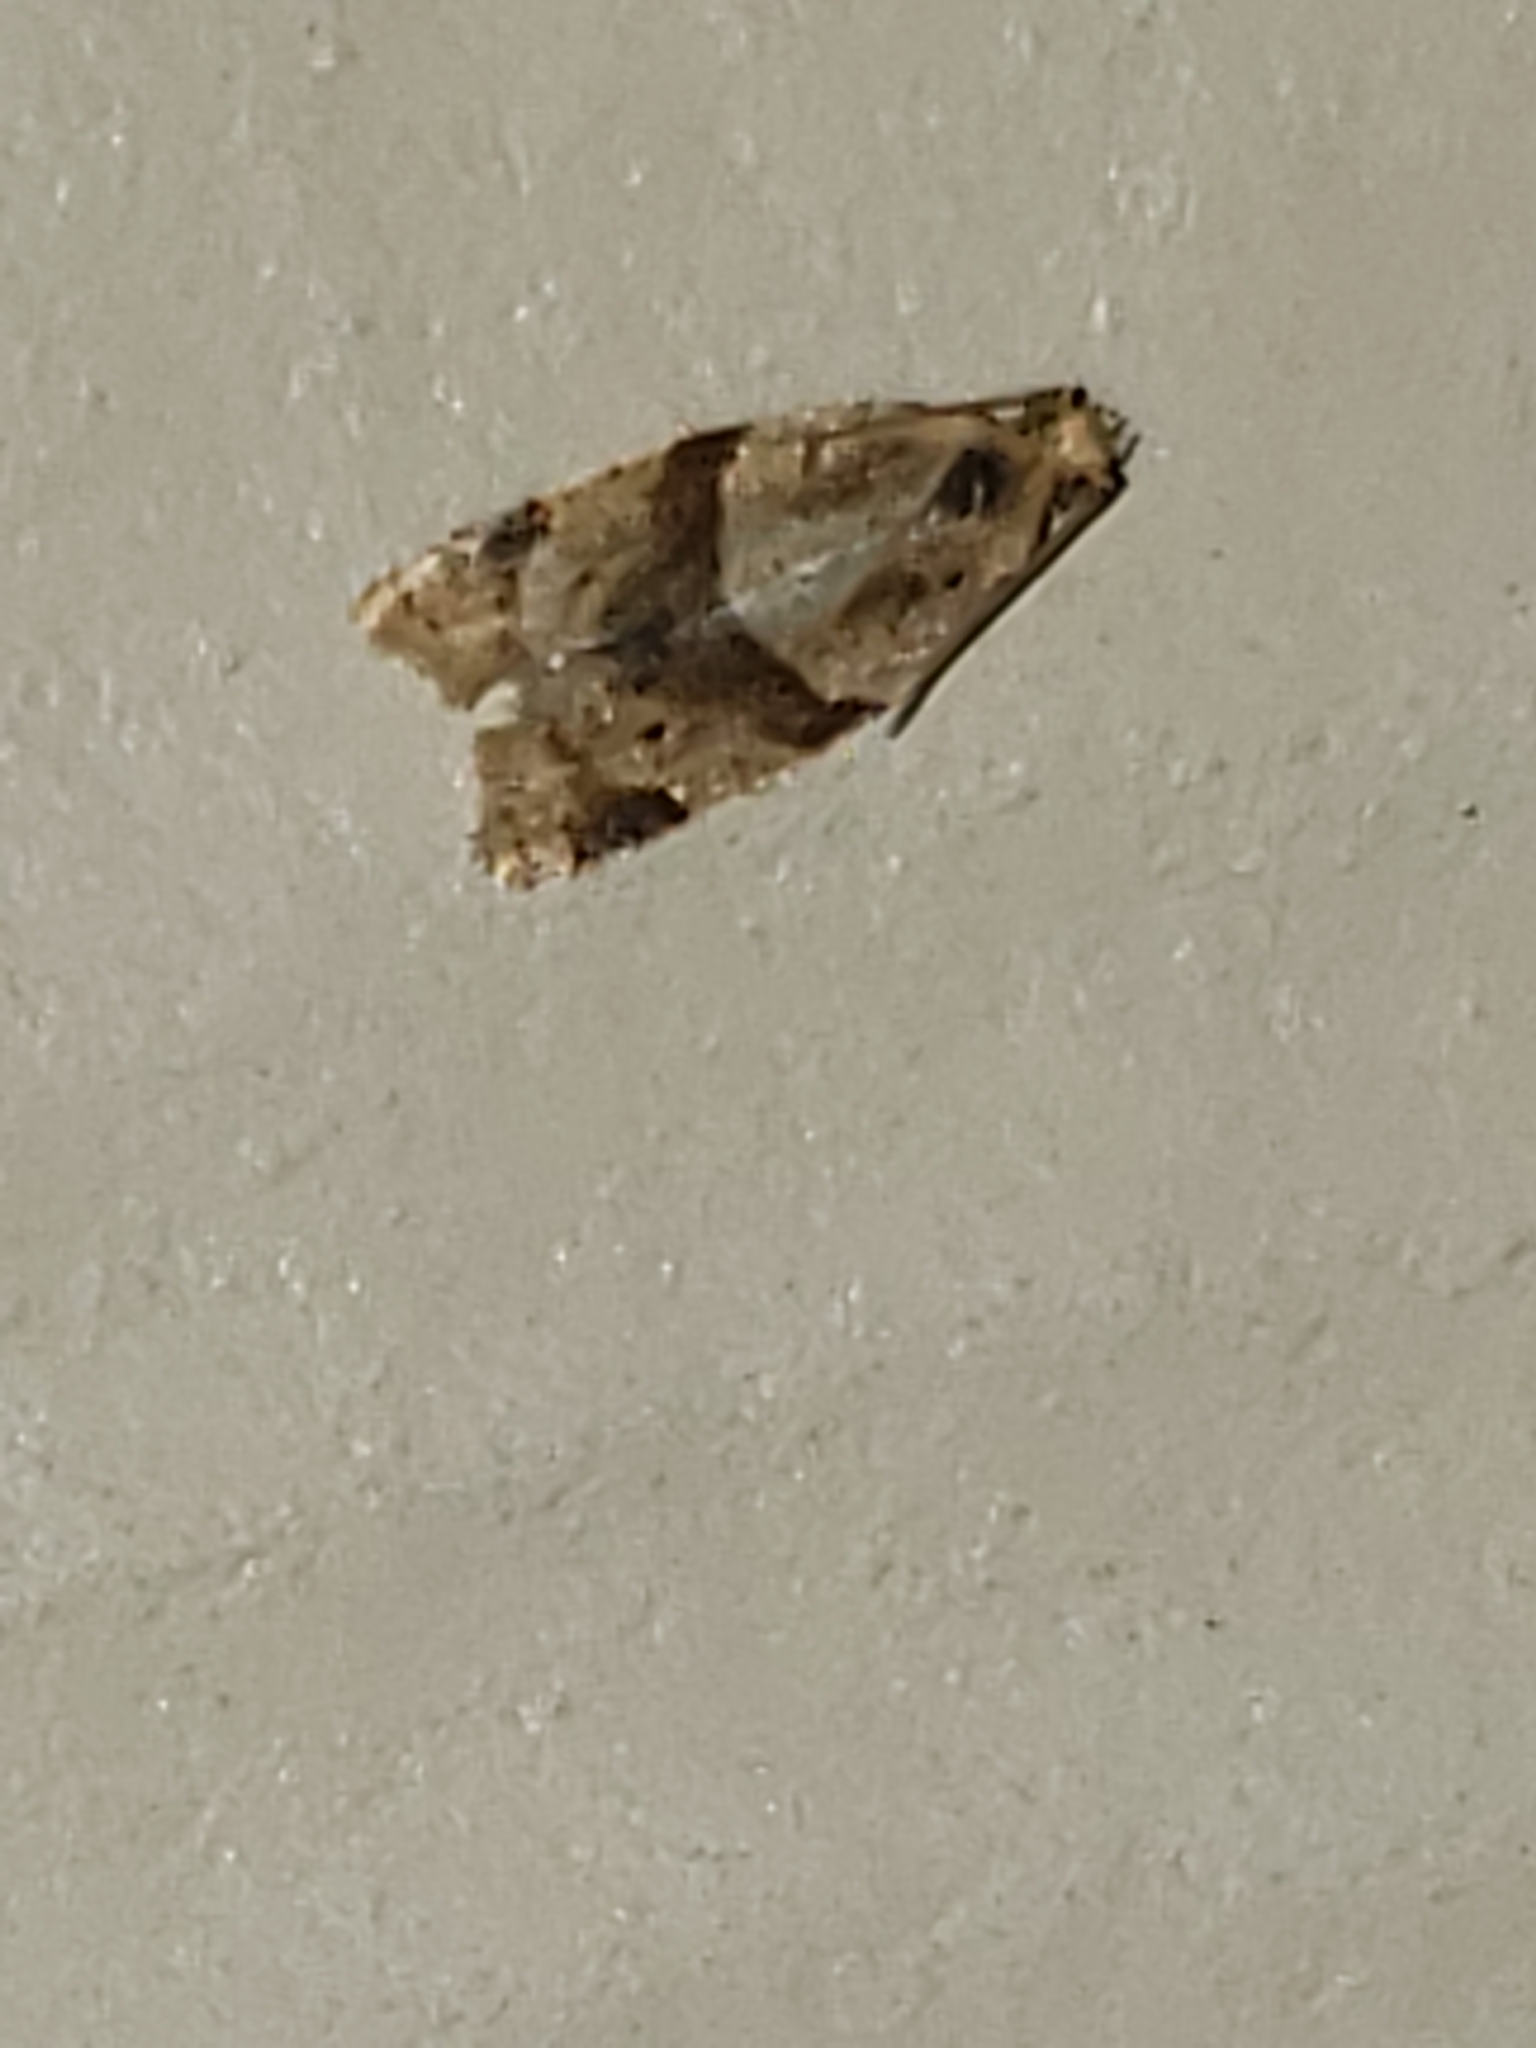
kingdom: Animalia
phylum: Arthropoda
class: Insecta
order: Lepidoptera
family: Tortricidae
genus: Clepsis
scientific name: Clepsis peritana
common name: Garden tortrix
